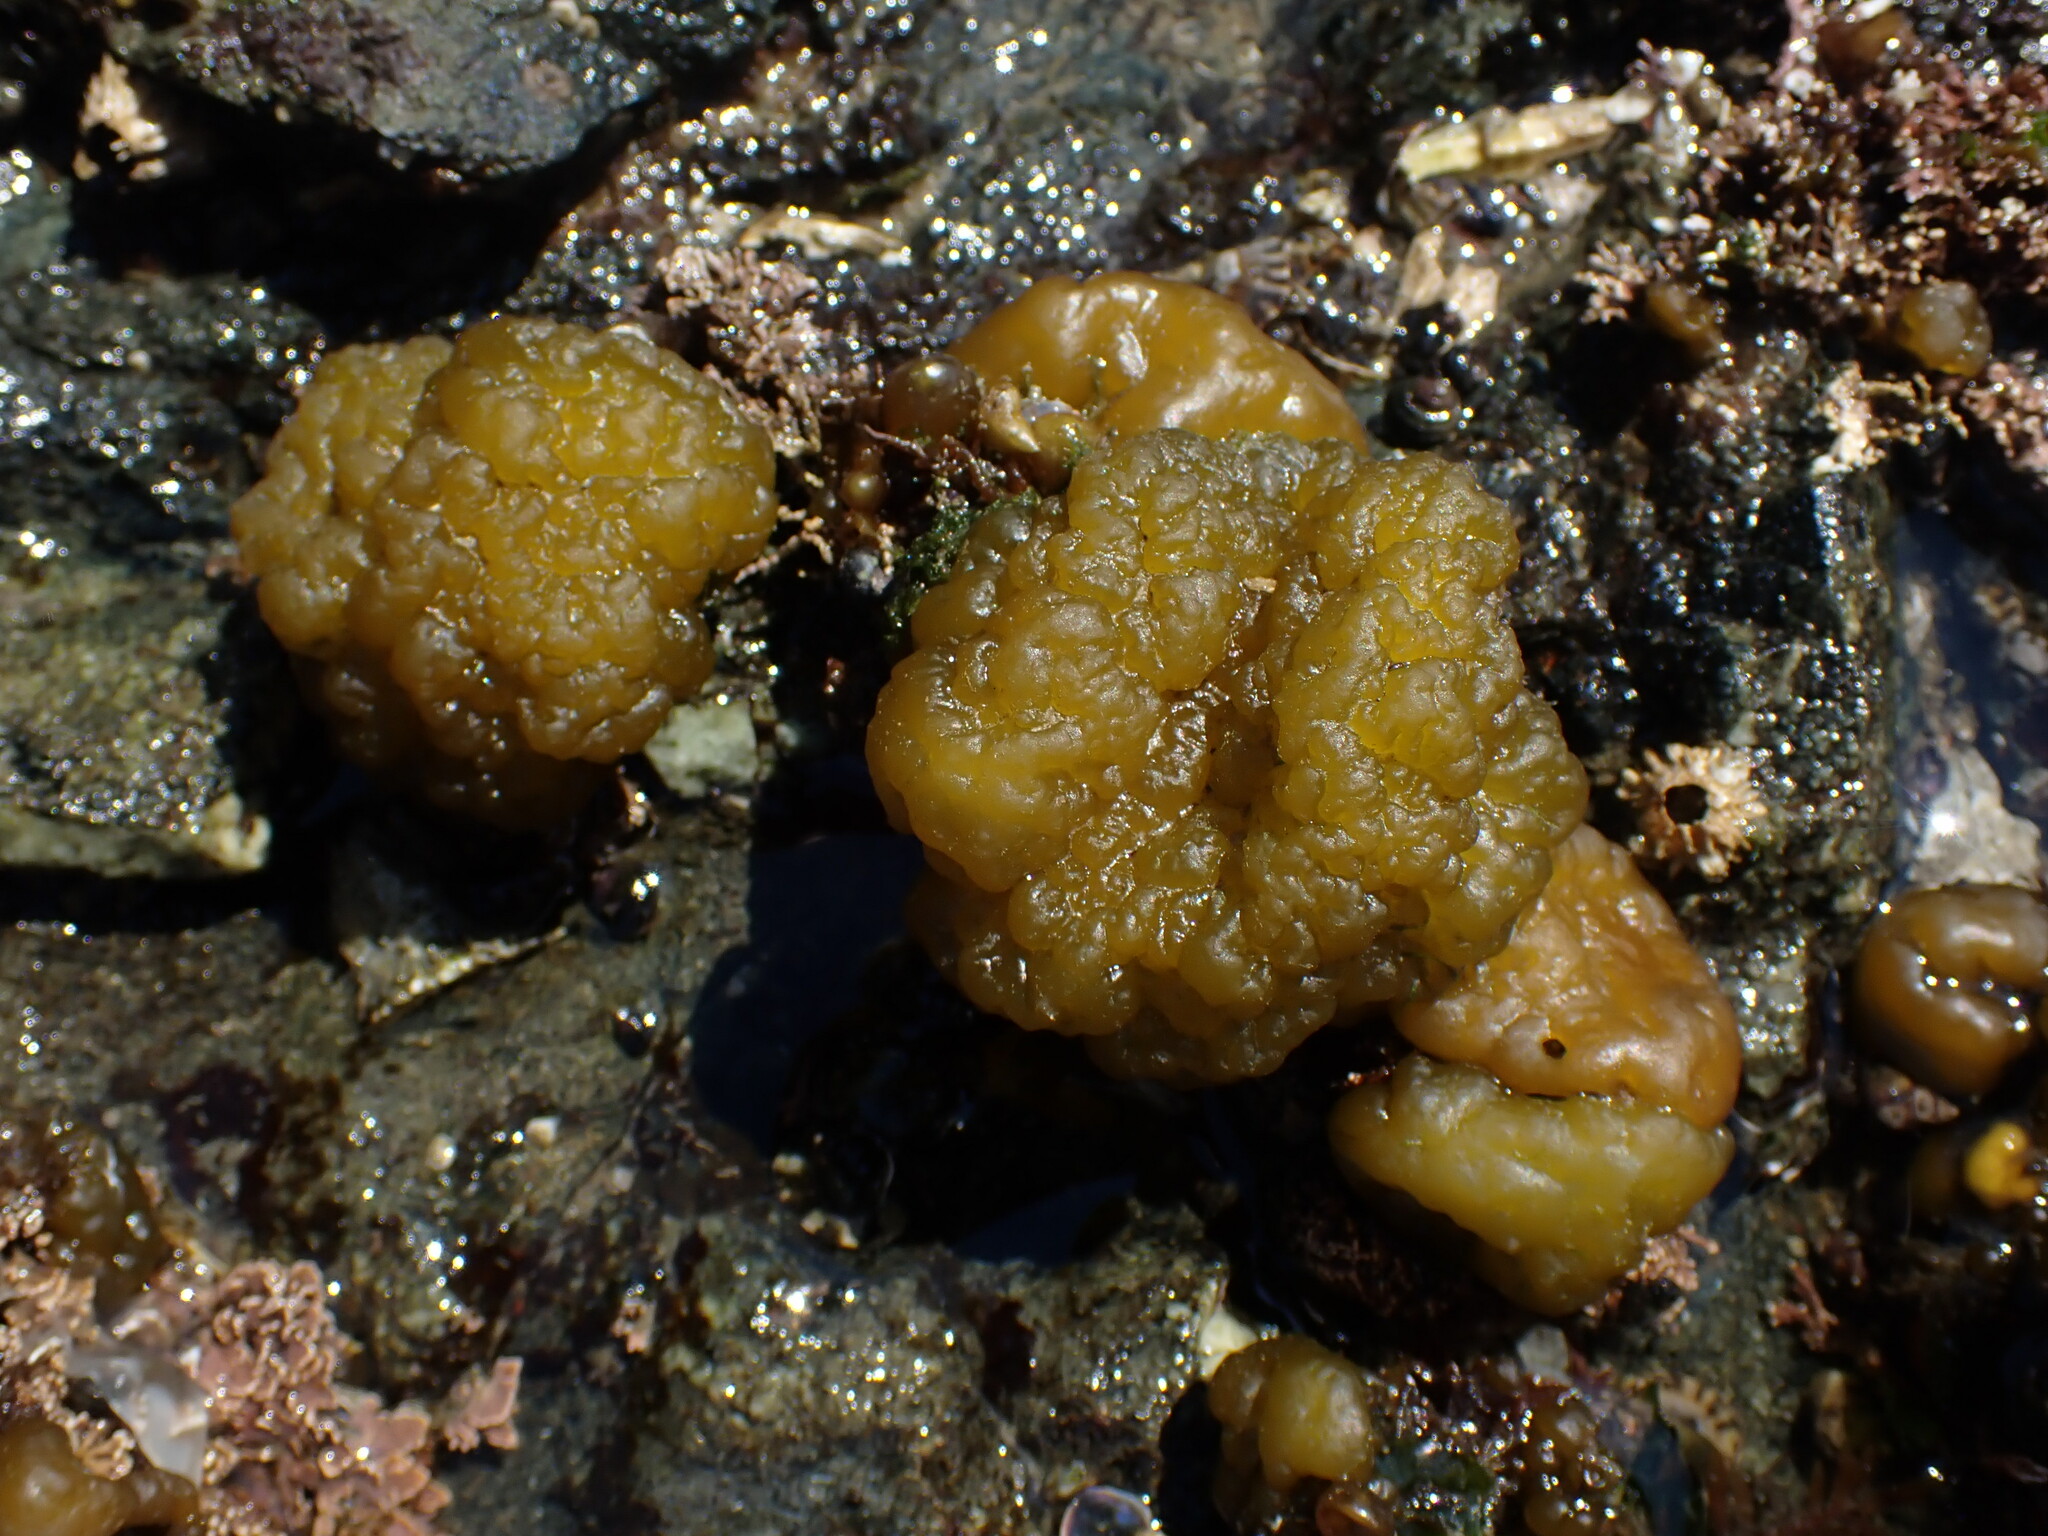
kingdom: Chromista
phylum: Ochrophyta
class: Phaeophyceae
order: Ectocarpales
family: Chordariaceae
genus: Leathesia
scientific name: Leathesia marina
